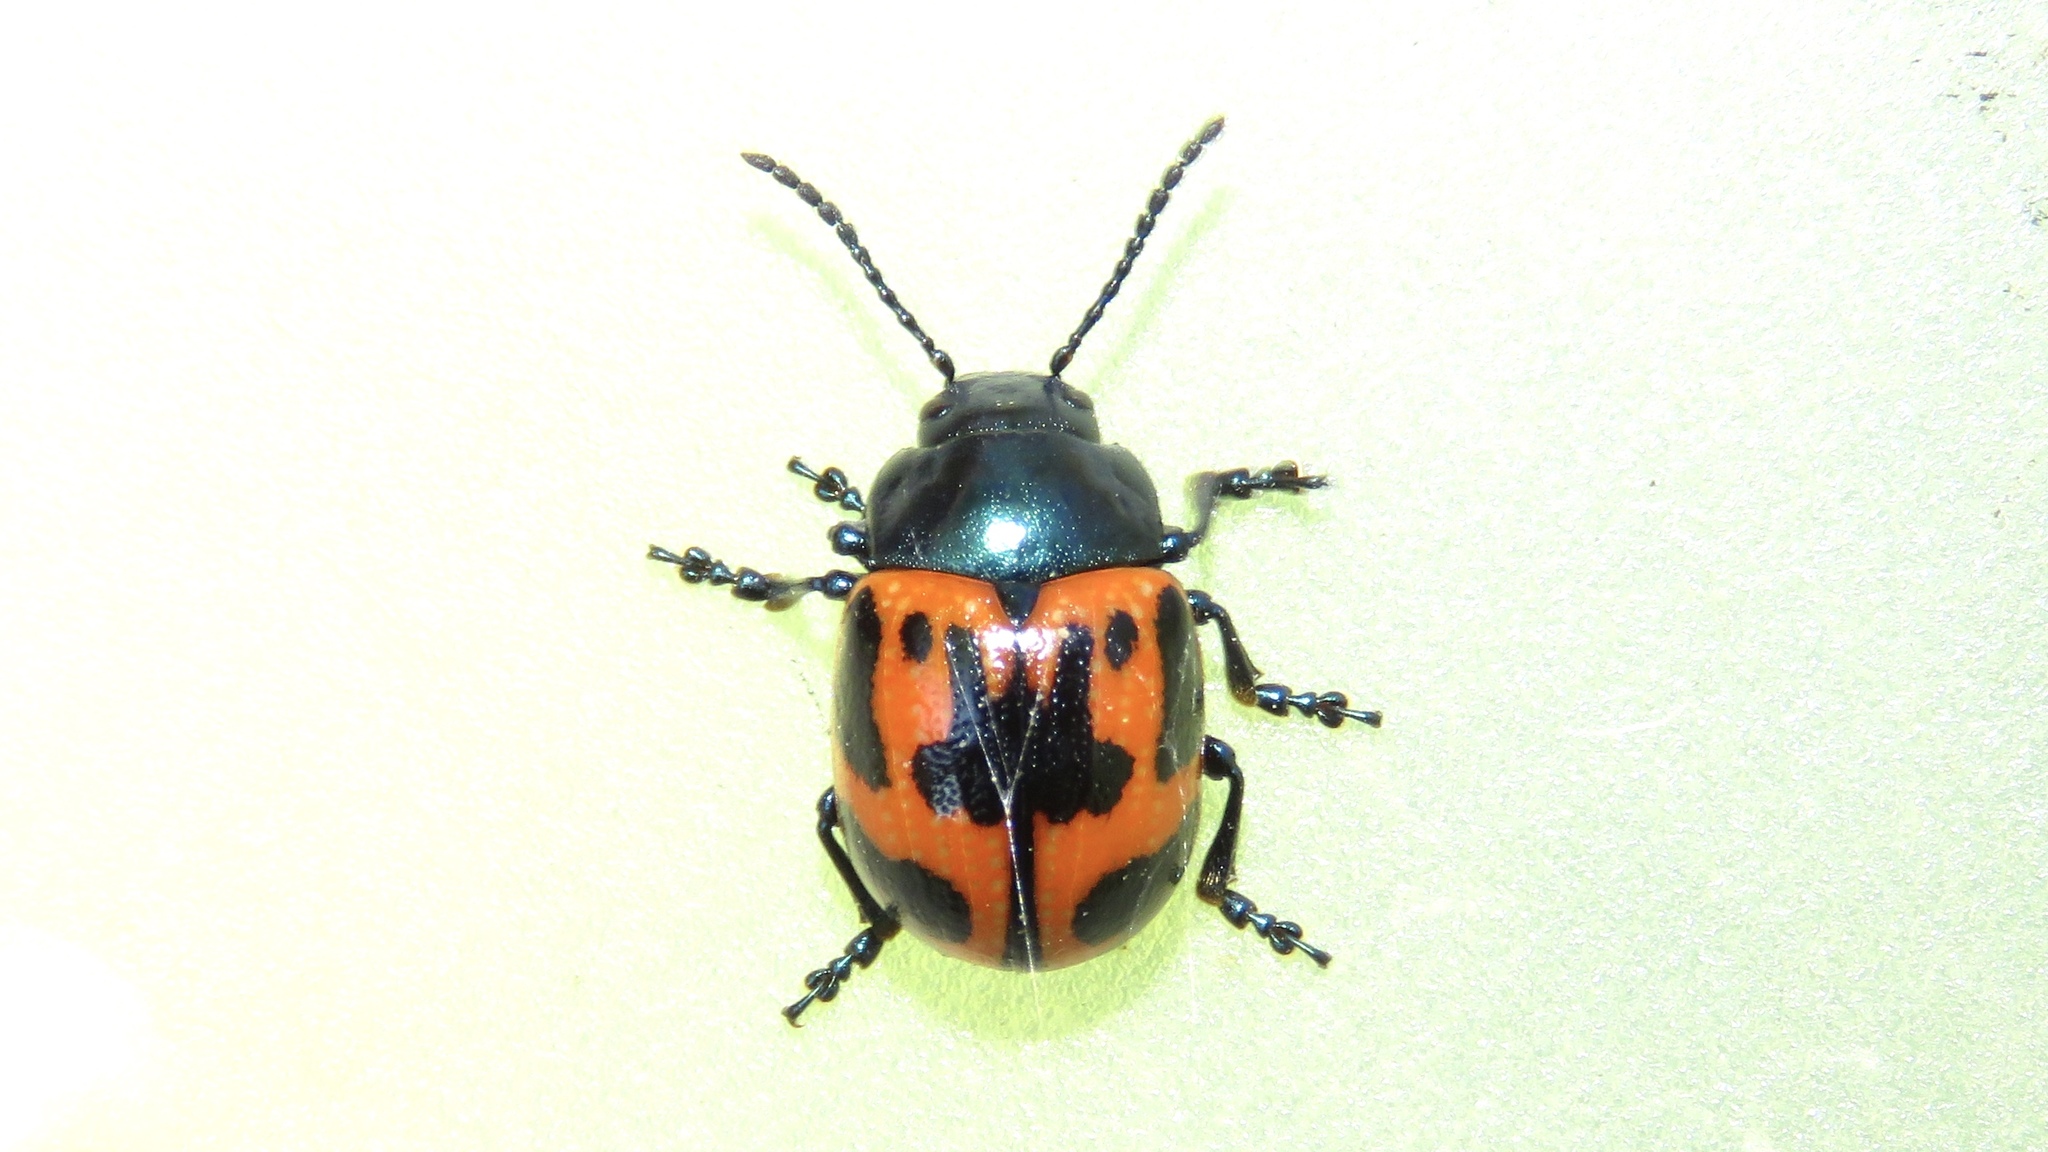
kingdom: Animalia
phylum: Arthropoda
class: Insecta
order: Coleoptera
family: Chrysomelidae
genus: Labidomera
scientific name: Labidomera clivicollis
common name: Swamp milkweed leaf beetle
